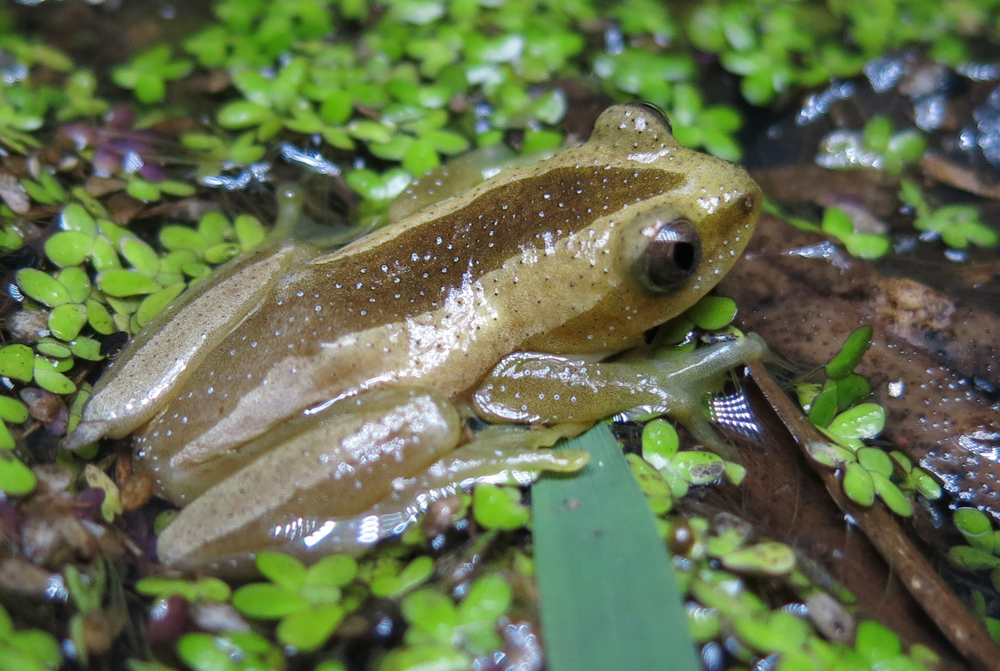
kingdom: Animalia
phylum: Chordata
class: Amphibia
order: Anura
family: Hyperoliidae
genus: Afrixalus
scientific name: Afrixalus fornasini
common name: Fornasini's spiny reed frog
